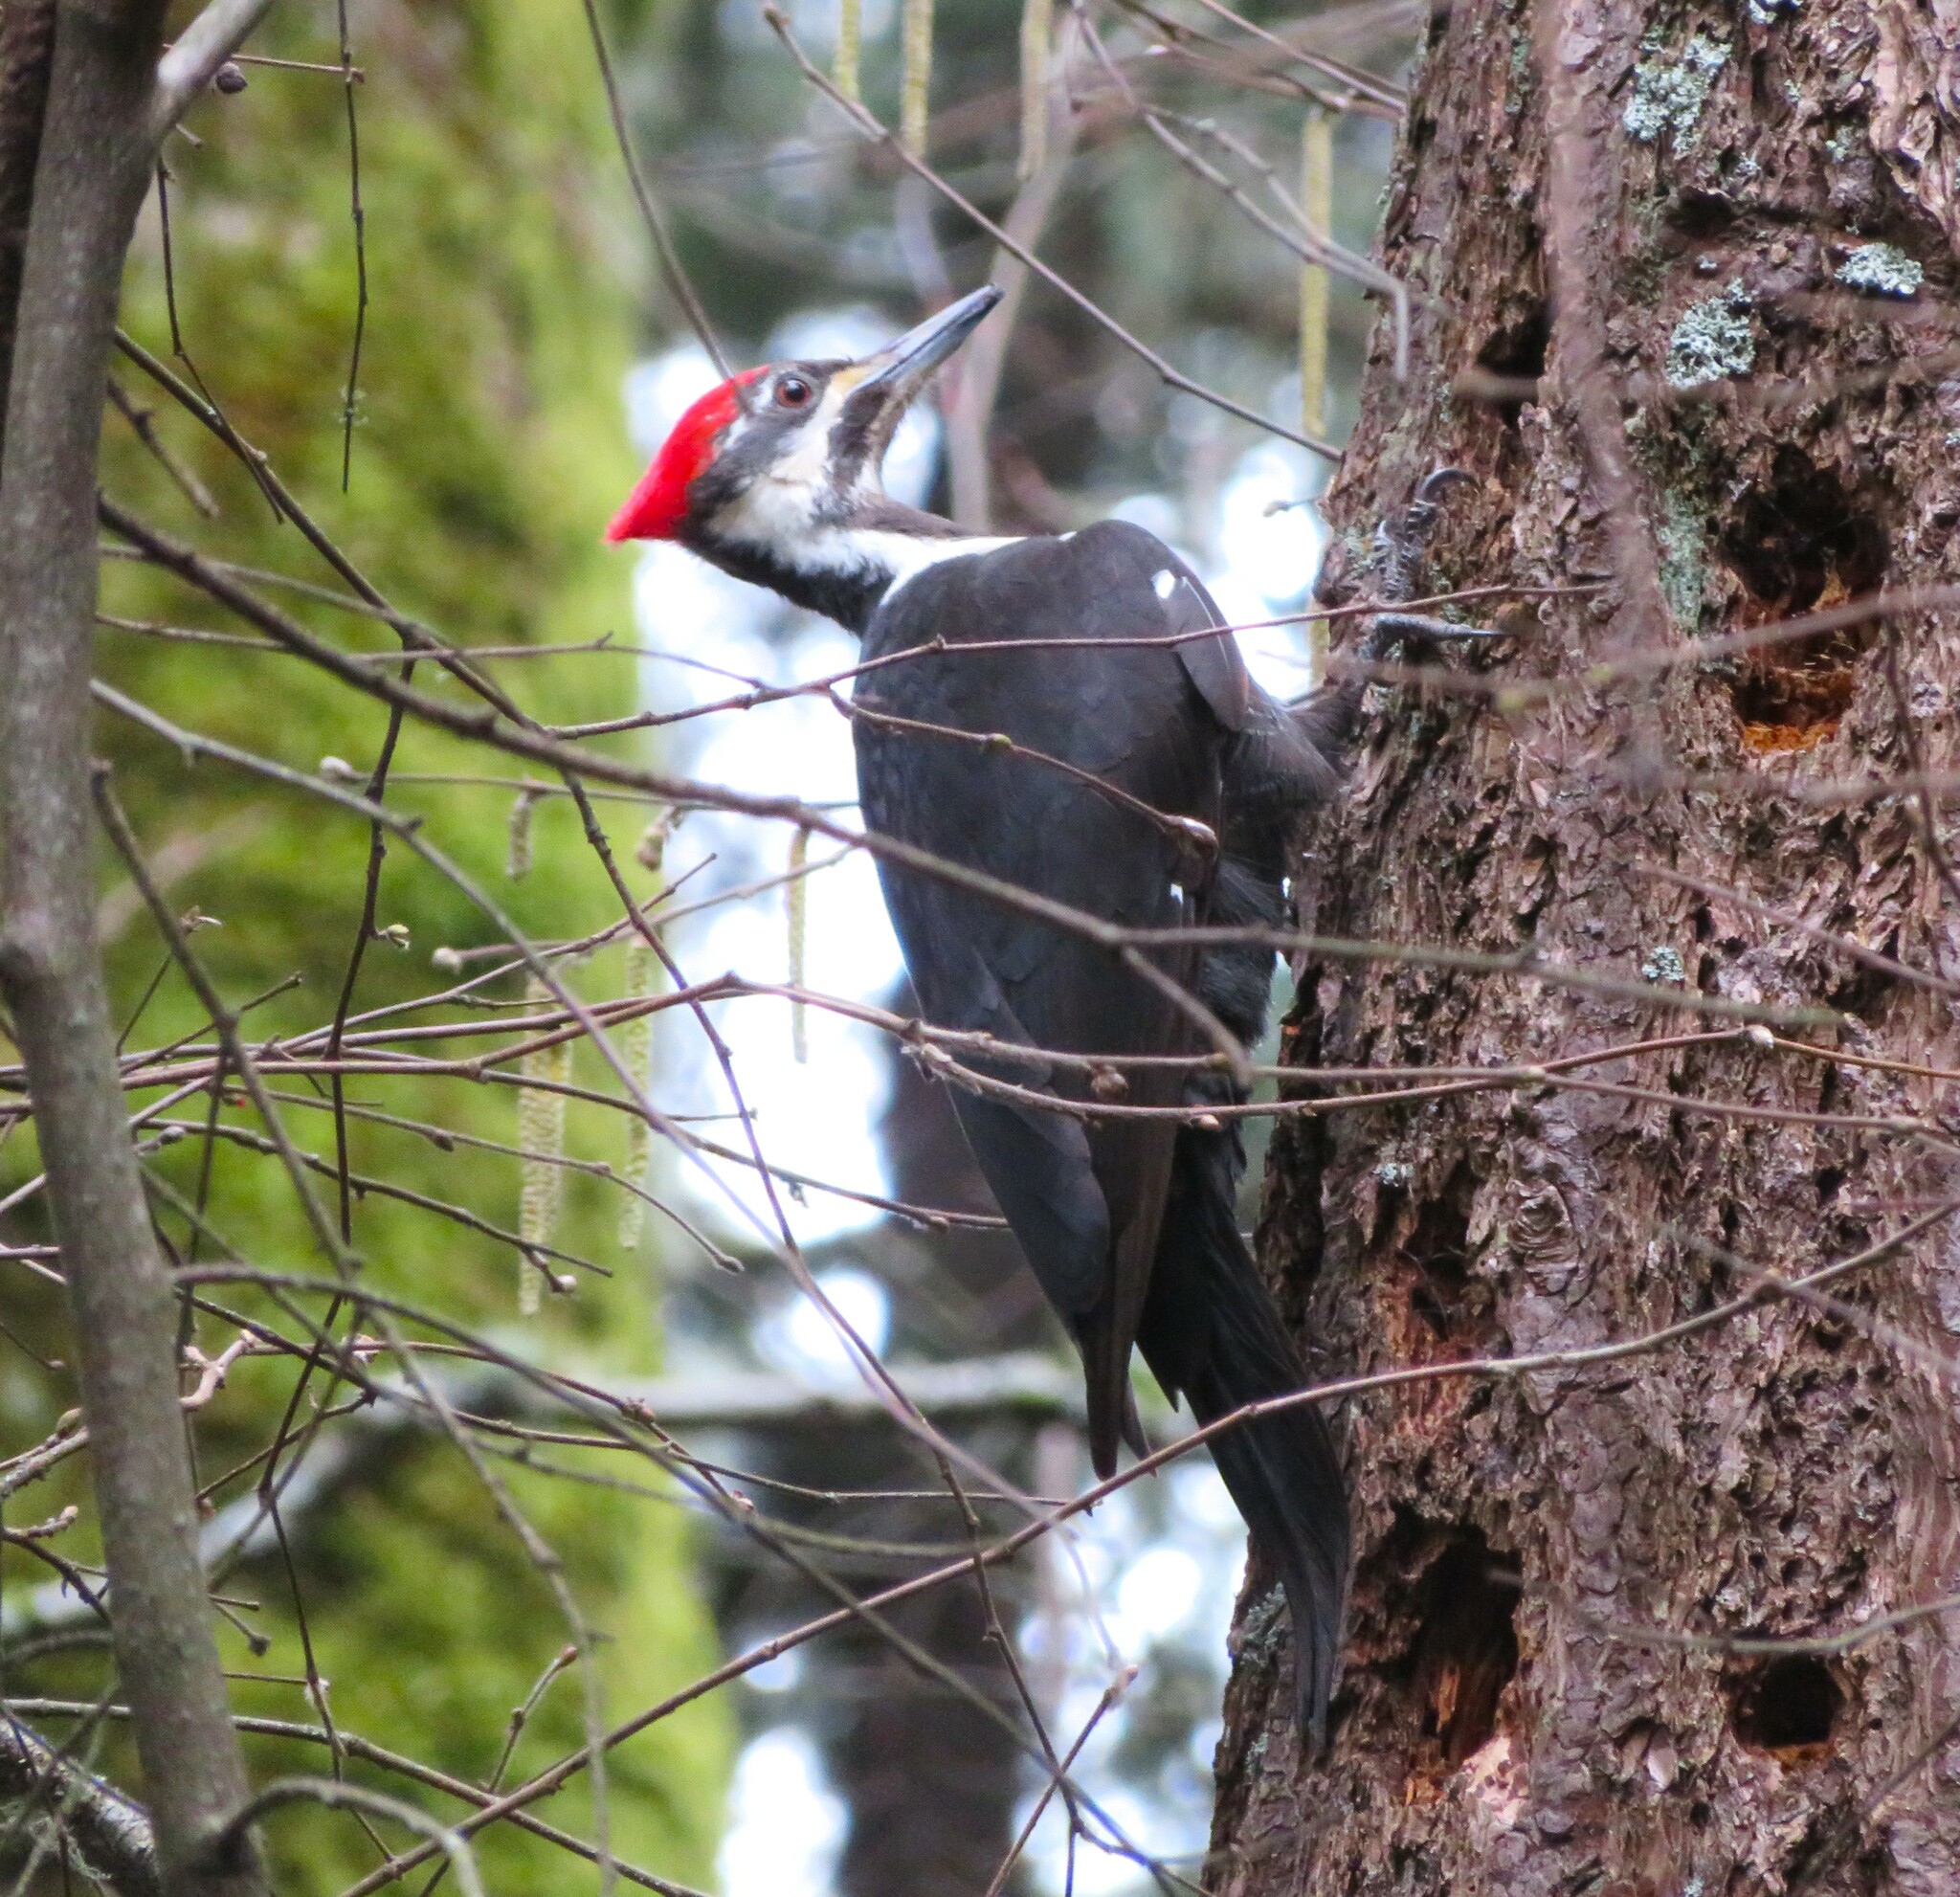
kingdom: Animalia
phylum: Chordata
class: Aves
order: Piciformes
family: Picidae
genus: Dryocopus
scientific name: Dryocopus pileatus
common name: Pileated woodpecker
